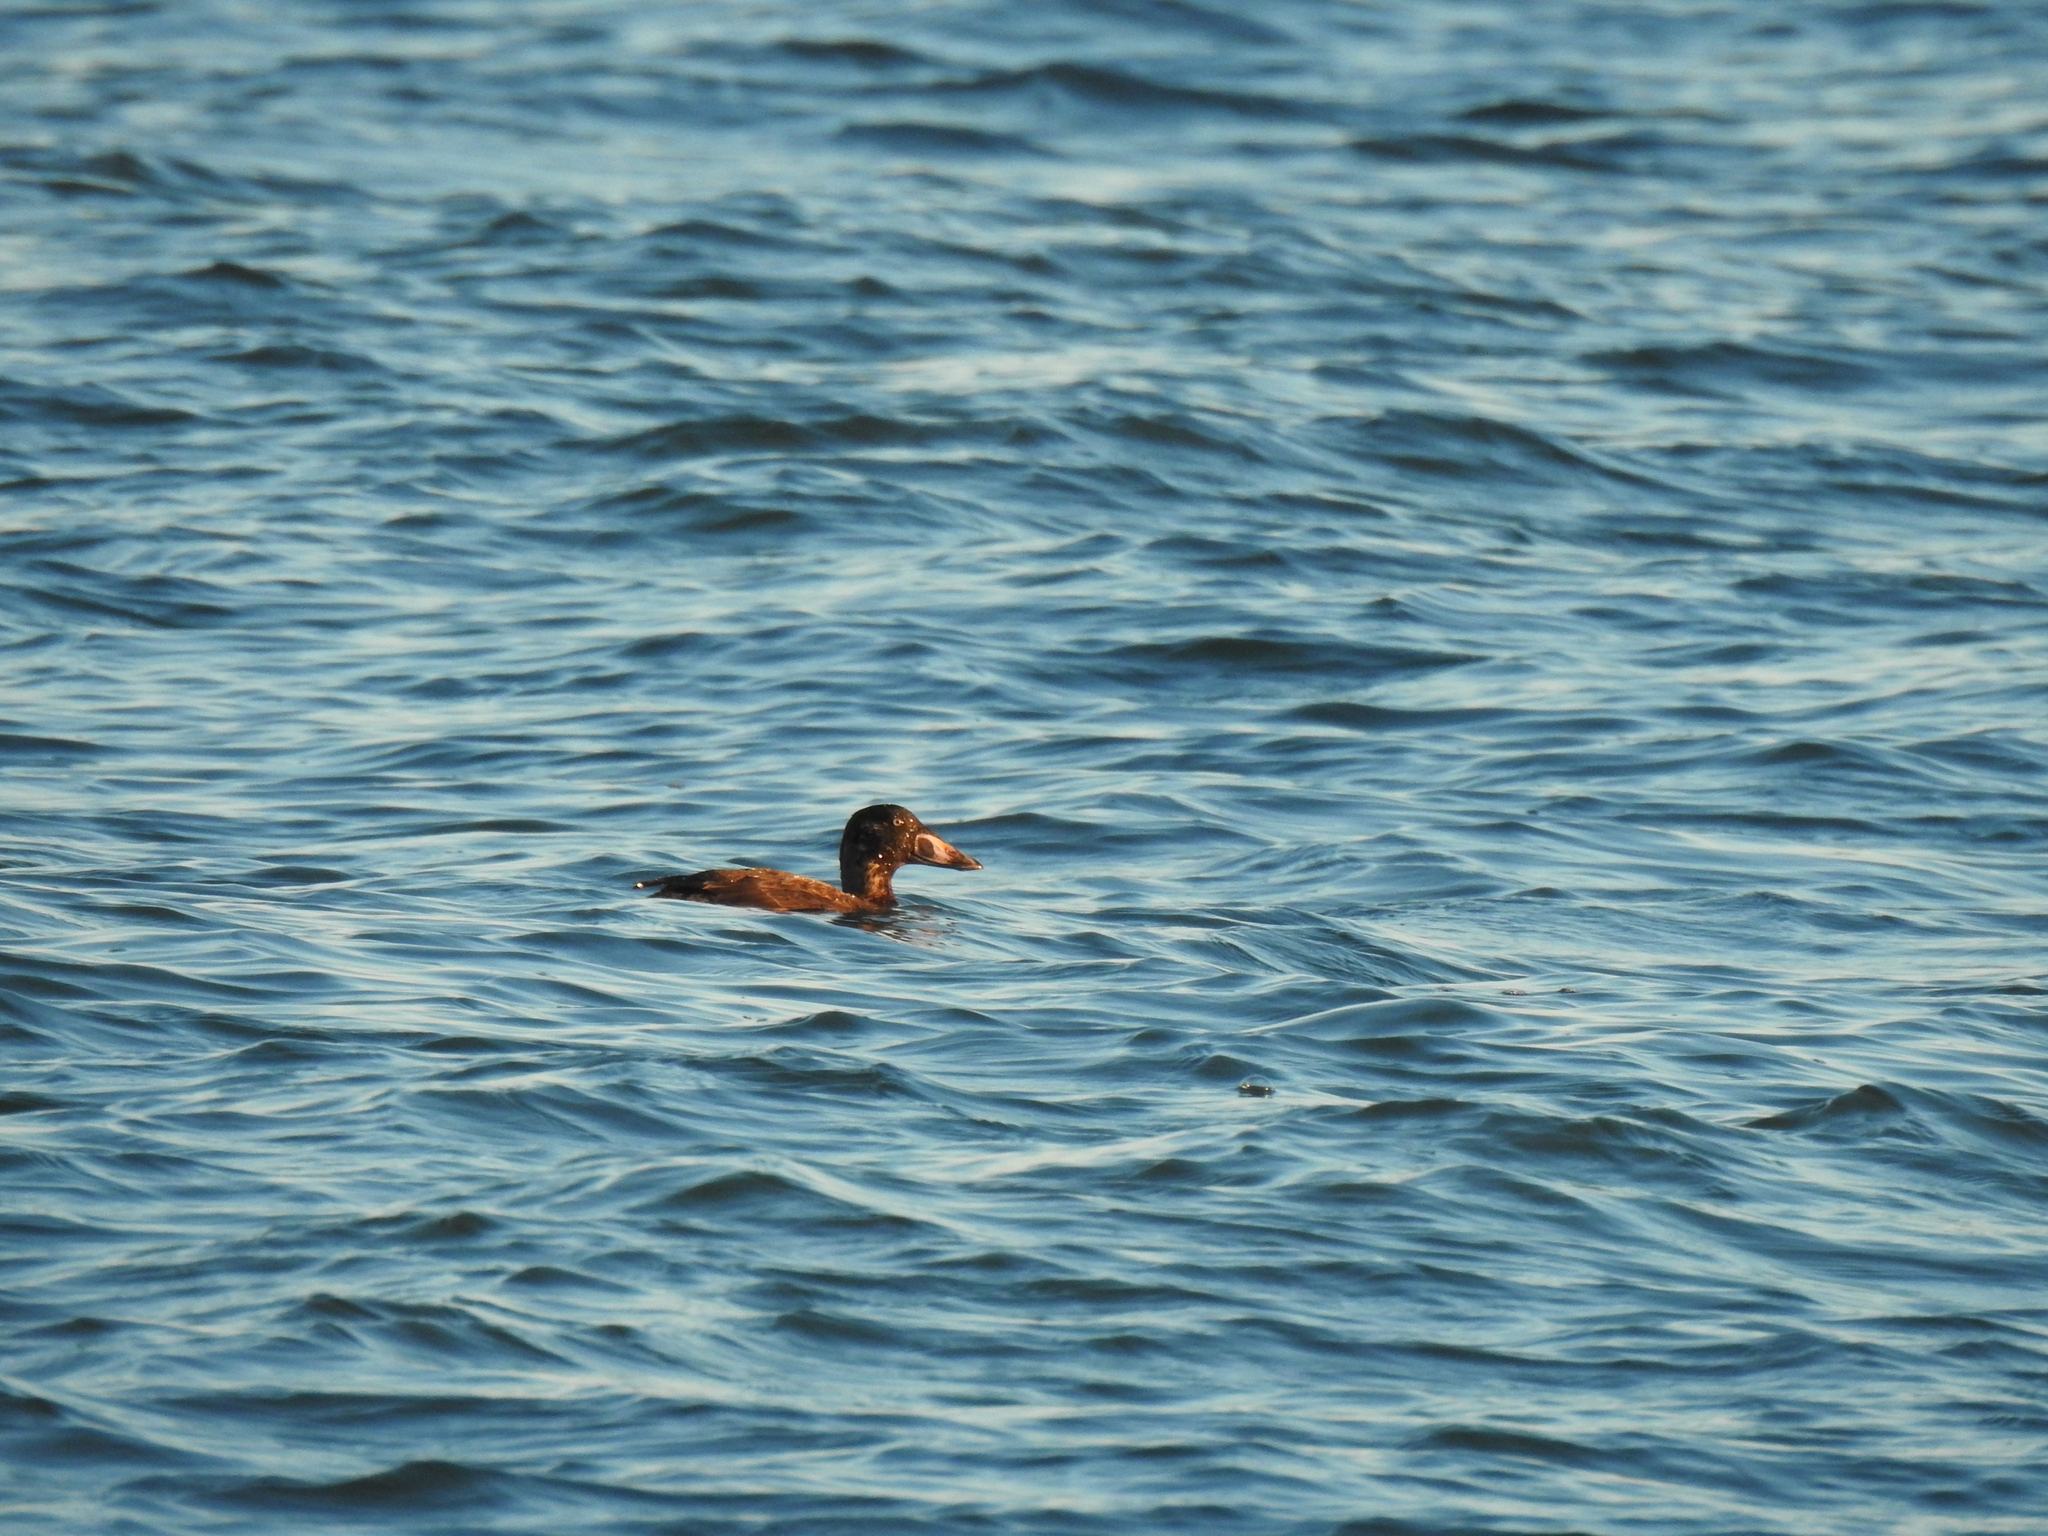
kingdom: Animalia
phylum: Chordata
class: Aves
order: Anseriformes
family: Anatidae
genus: Melanitta
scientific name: Melanitta perspicillata
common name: Surf scoter
